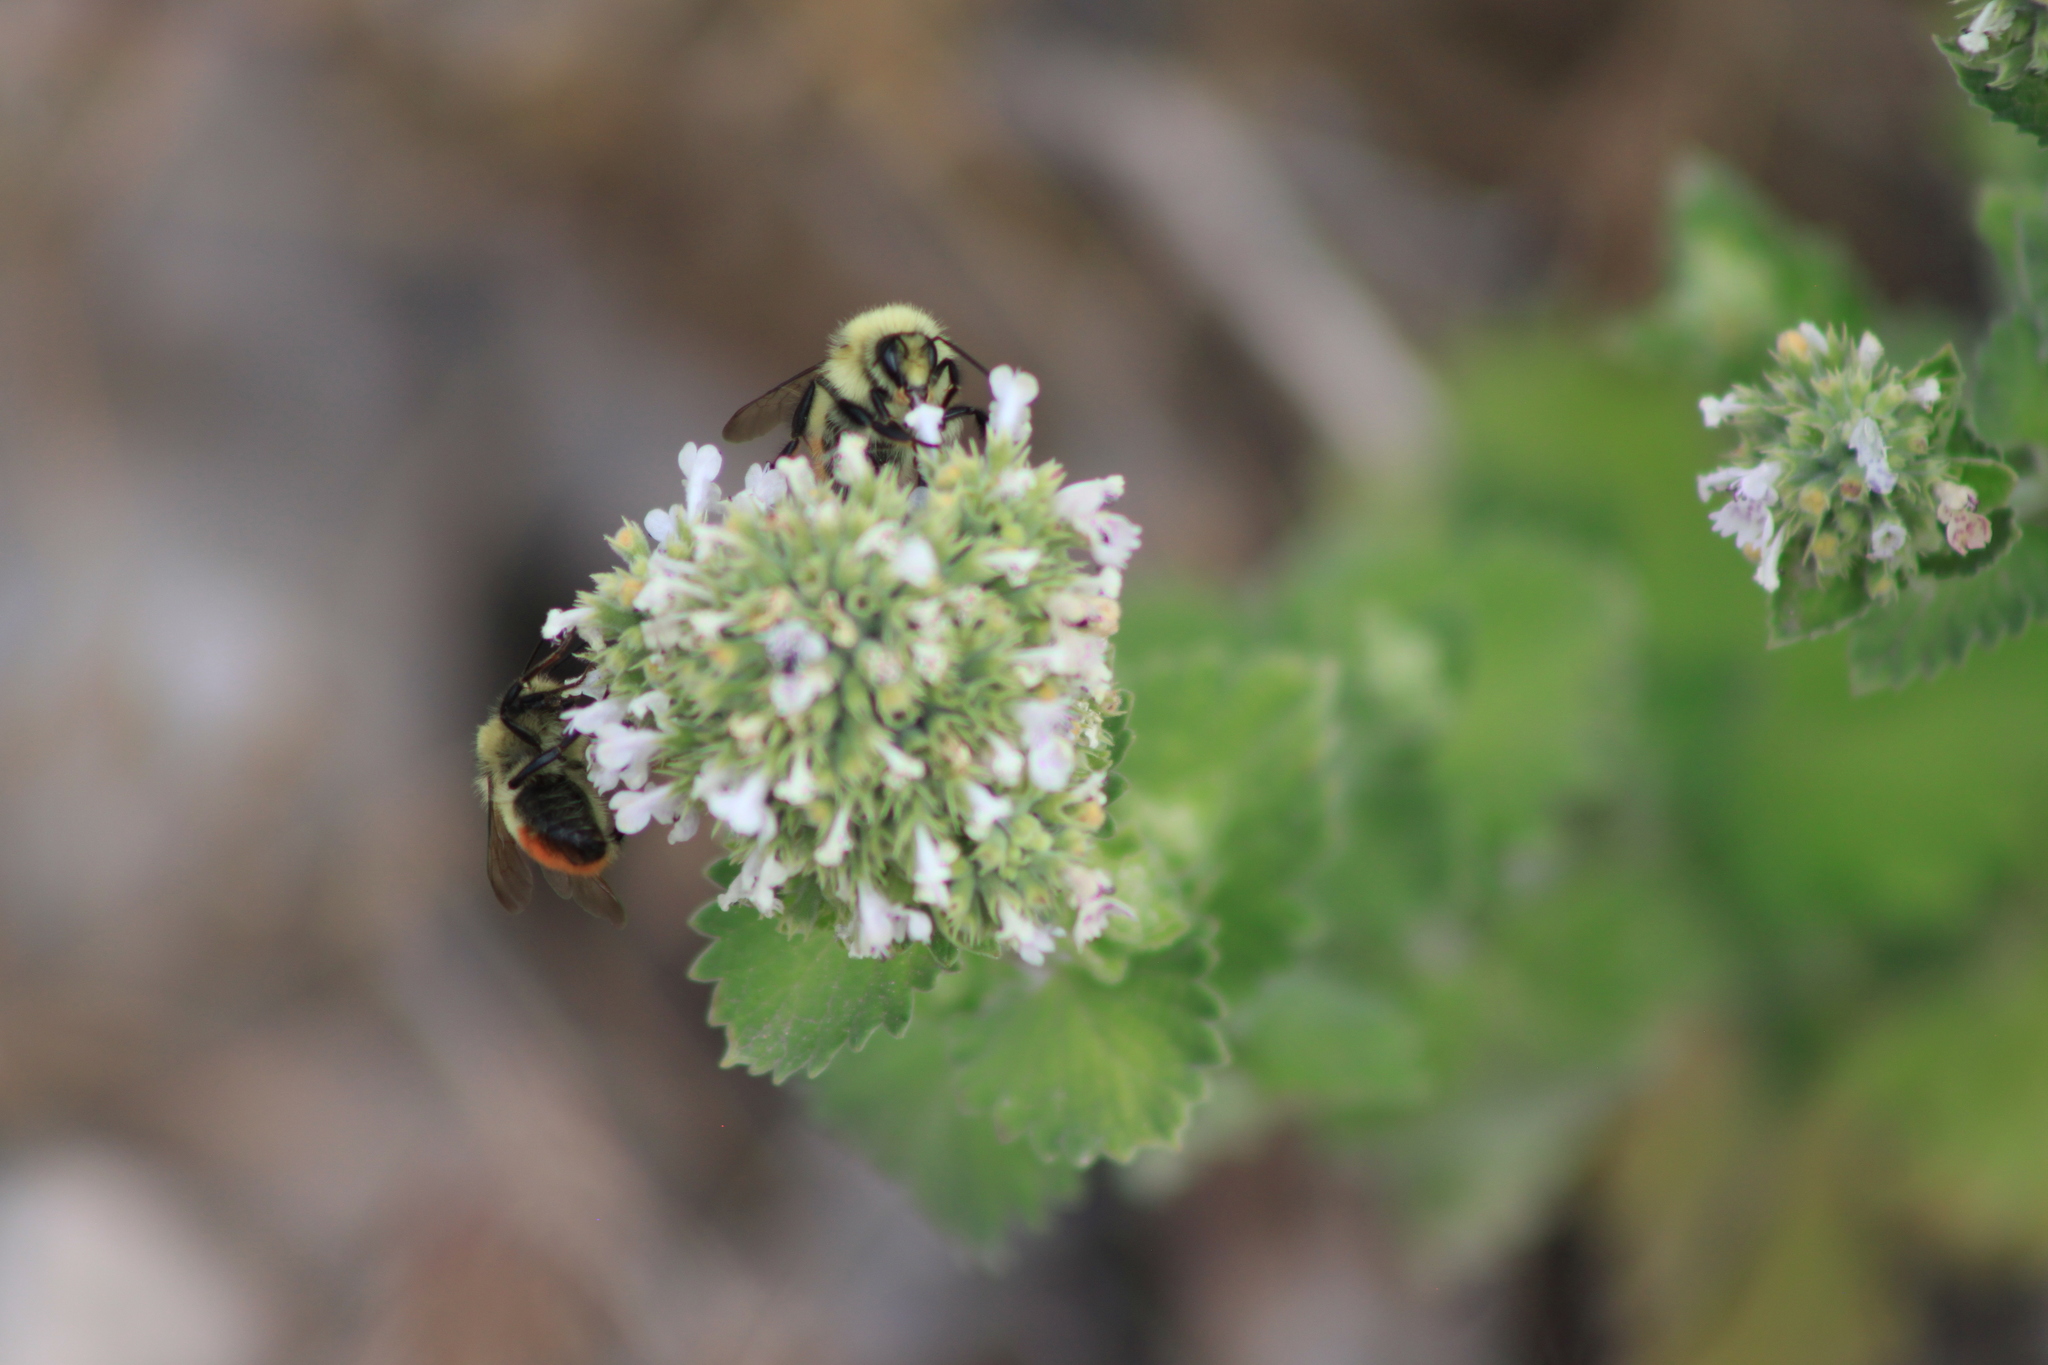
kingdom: Animalia
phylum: Arthropoda
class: Insecta
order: Hymenoptera
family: Apidae
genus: Bombus
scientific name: Bombus centralis
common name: Central bumble bee
